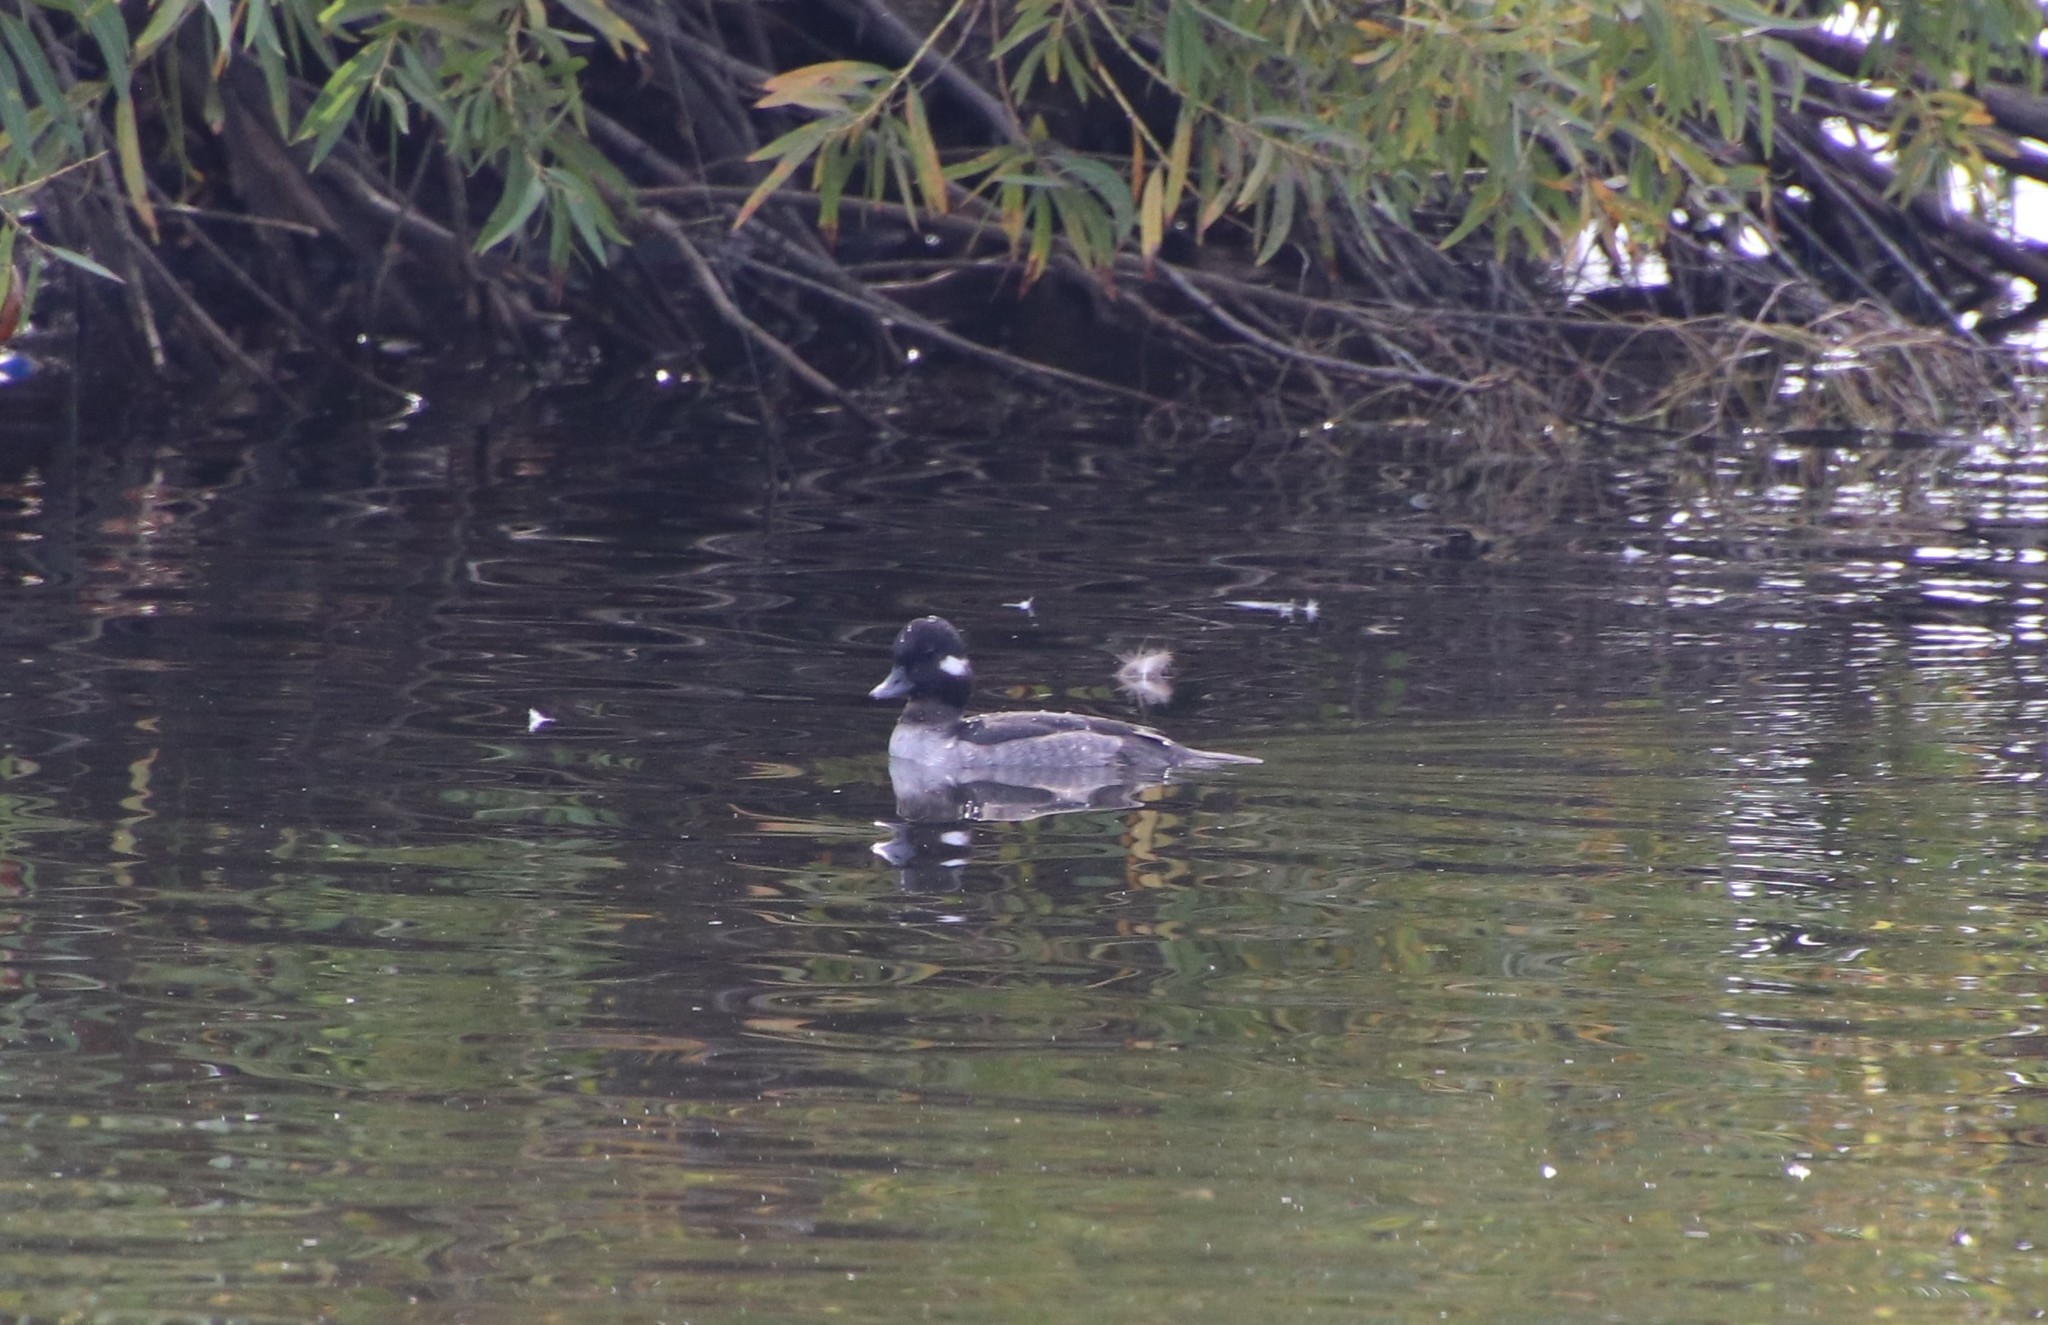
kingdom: Animalia
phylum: Chordata
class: Aves
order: Anseriformes
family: Anatidae
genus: Bucephala
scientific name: Bucephala albeola
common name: Bufflehead
